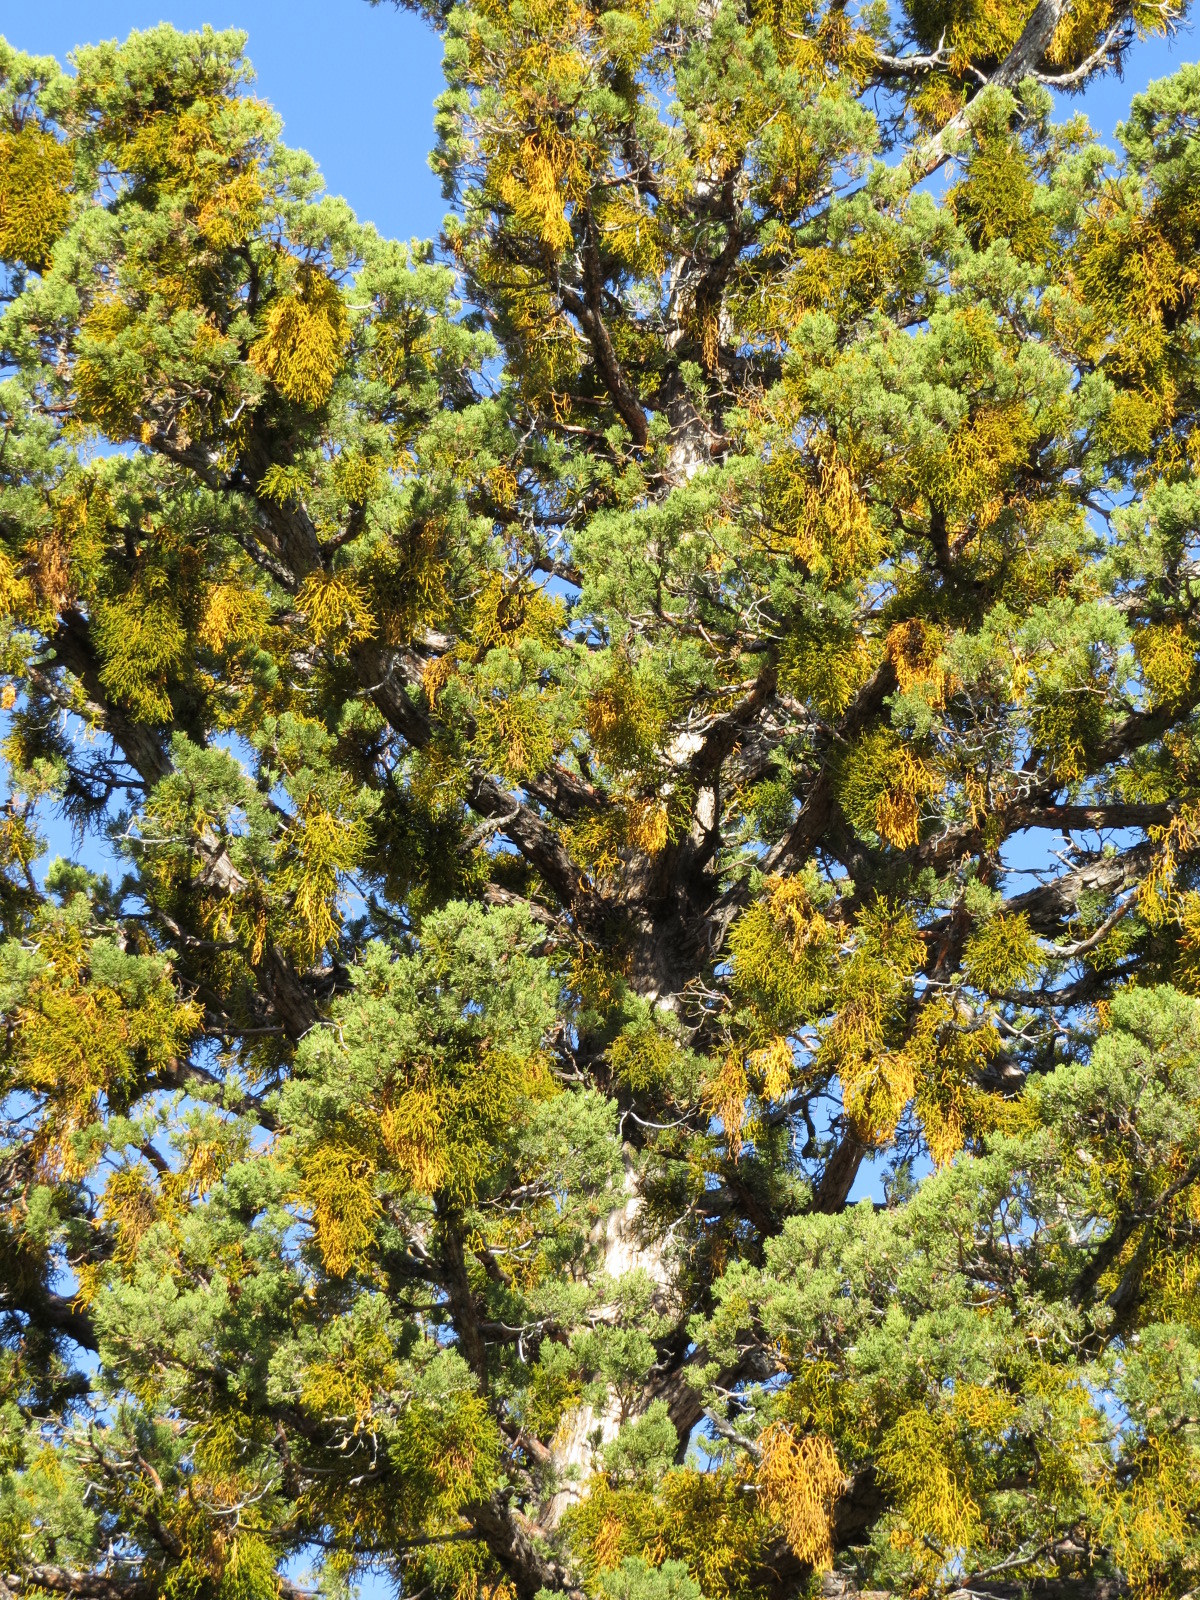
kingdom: Plantae
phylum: Tracheophyta
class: Pinopsida
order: Pinales
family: Cupressaceae
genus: Juniperus
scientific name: Juniperus occidentalis
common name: Western juniper
